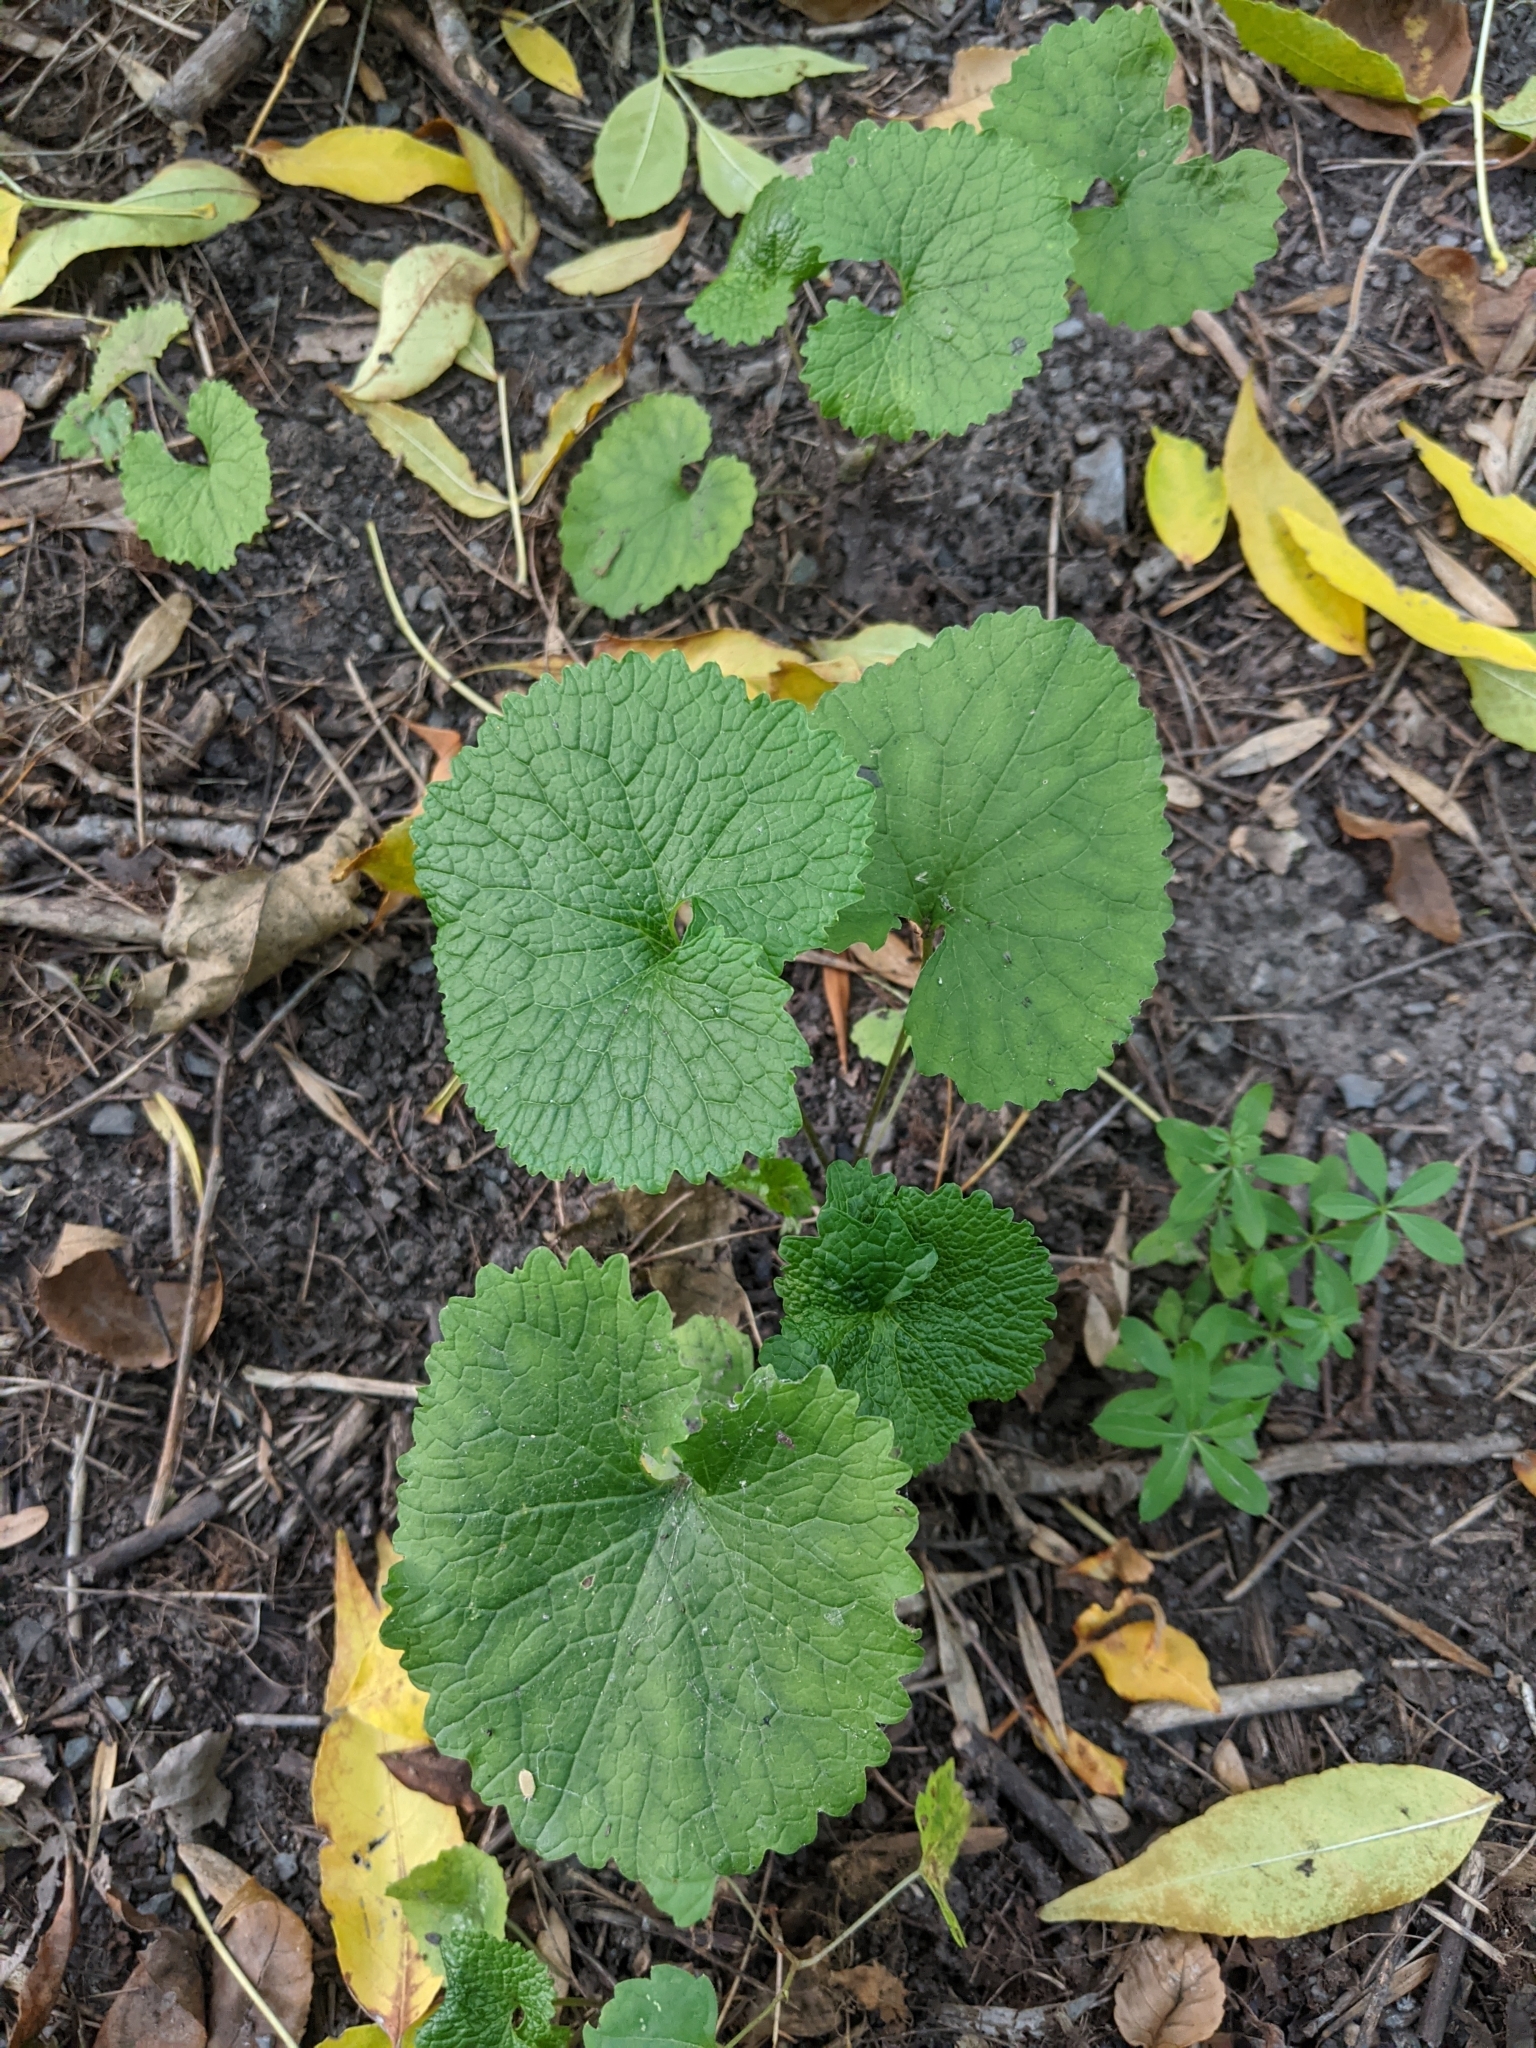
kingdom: Plantae
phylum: Tracheophyta
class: Magnoliopsida
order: Brassicales
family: Brassicaceae
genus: Alliaria
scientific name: Alliaria petiolata
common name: Garlic mustard
